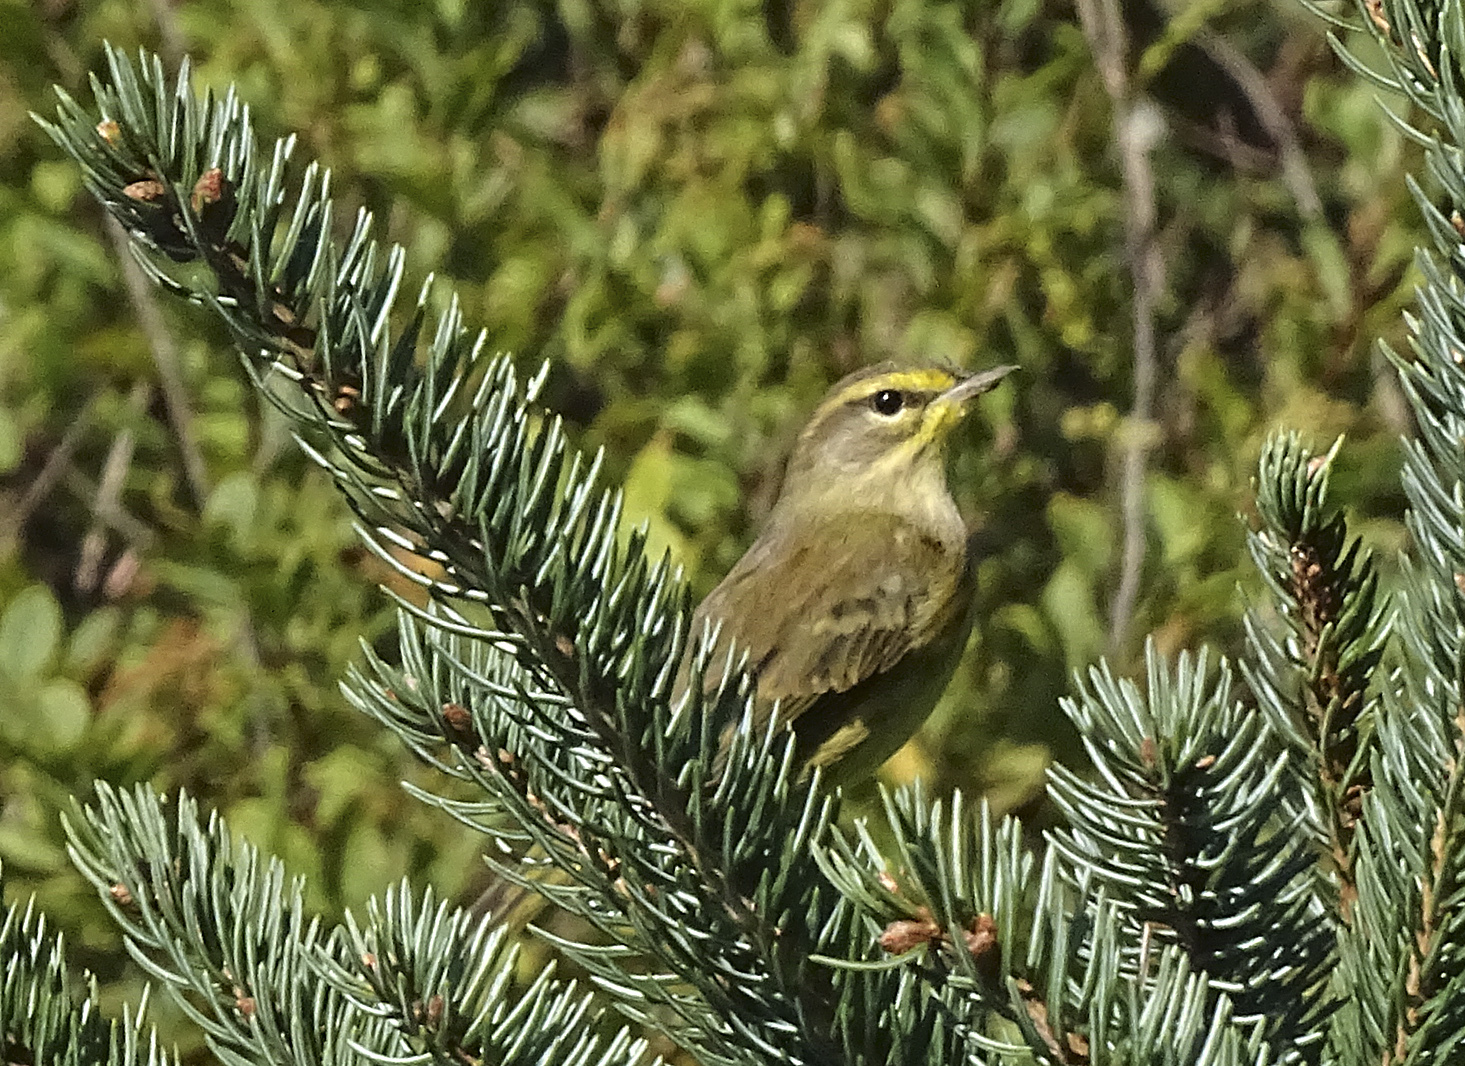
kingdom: Animalia
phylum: Chordata
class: Aves
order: Passeriformes
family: Parulidae
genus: Setophaga
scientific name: Setophaga palmarum
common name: Palm warbler
